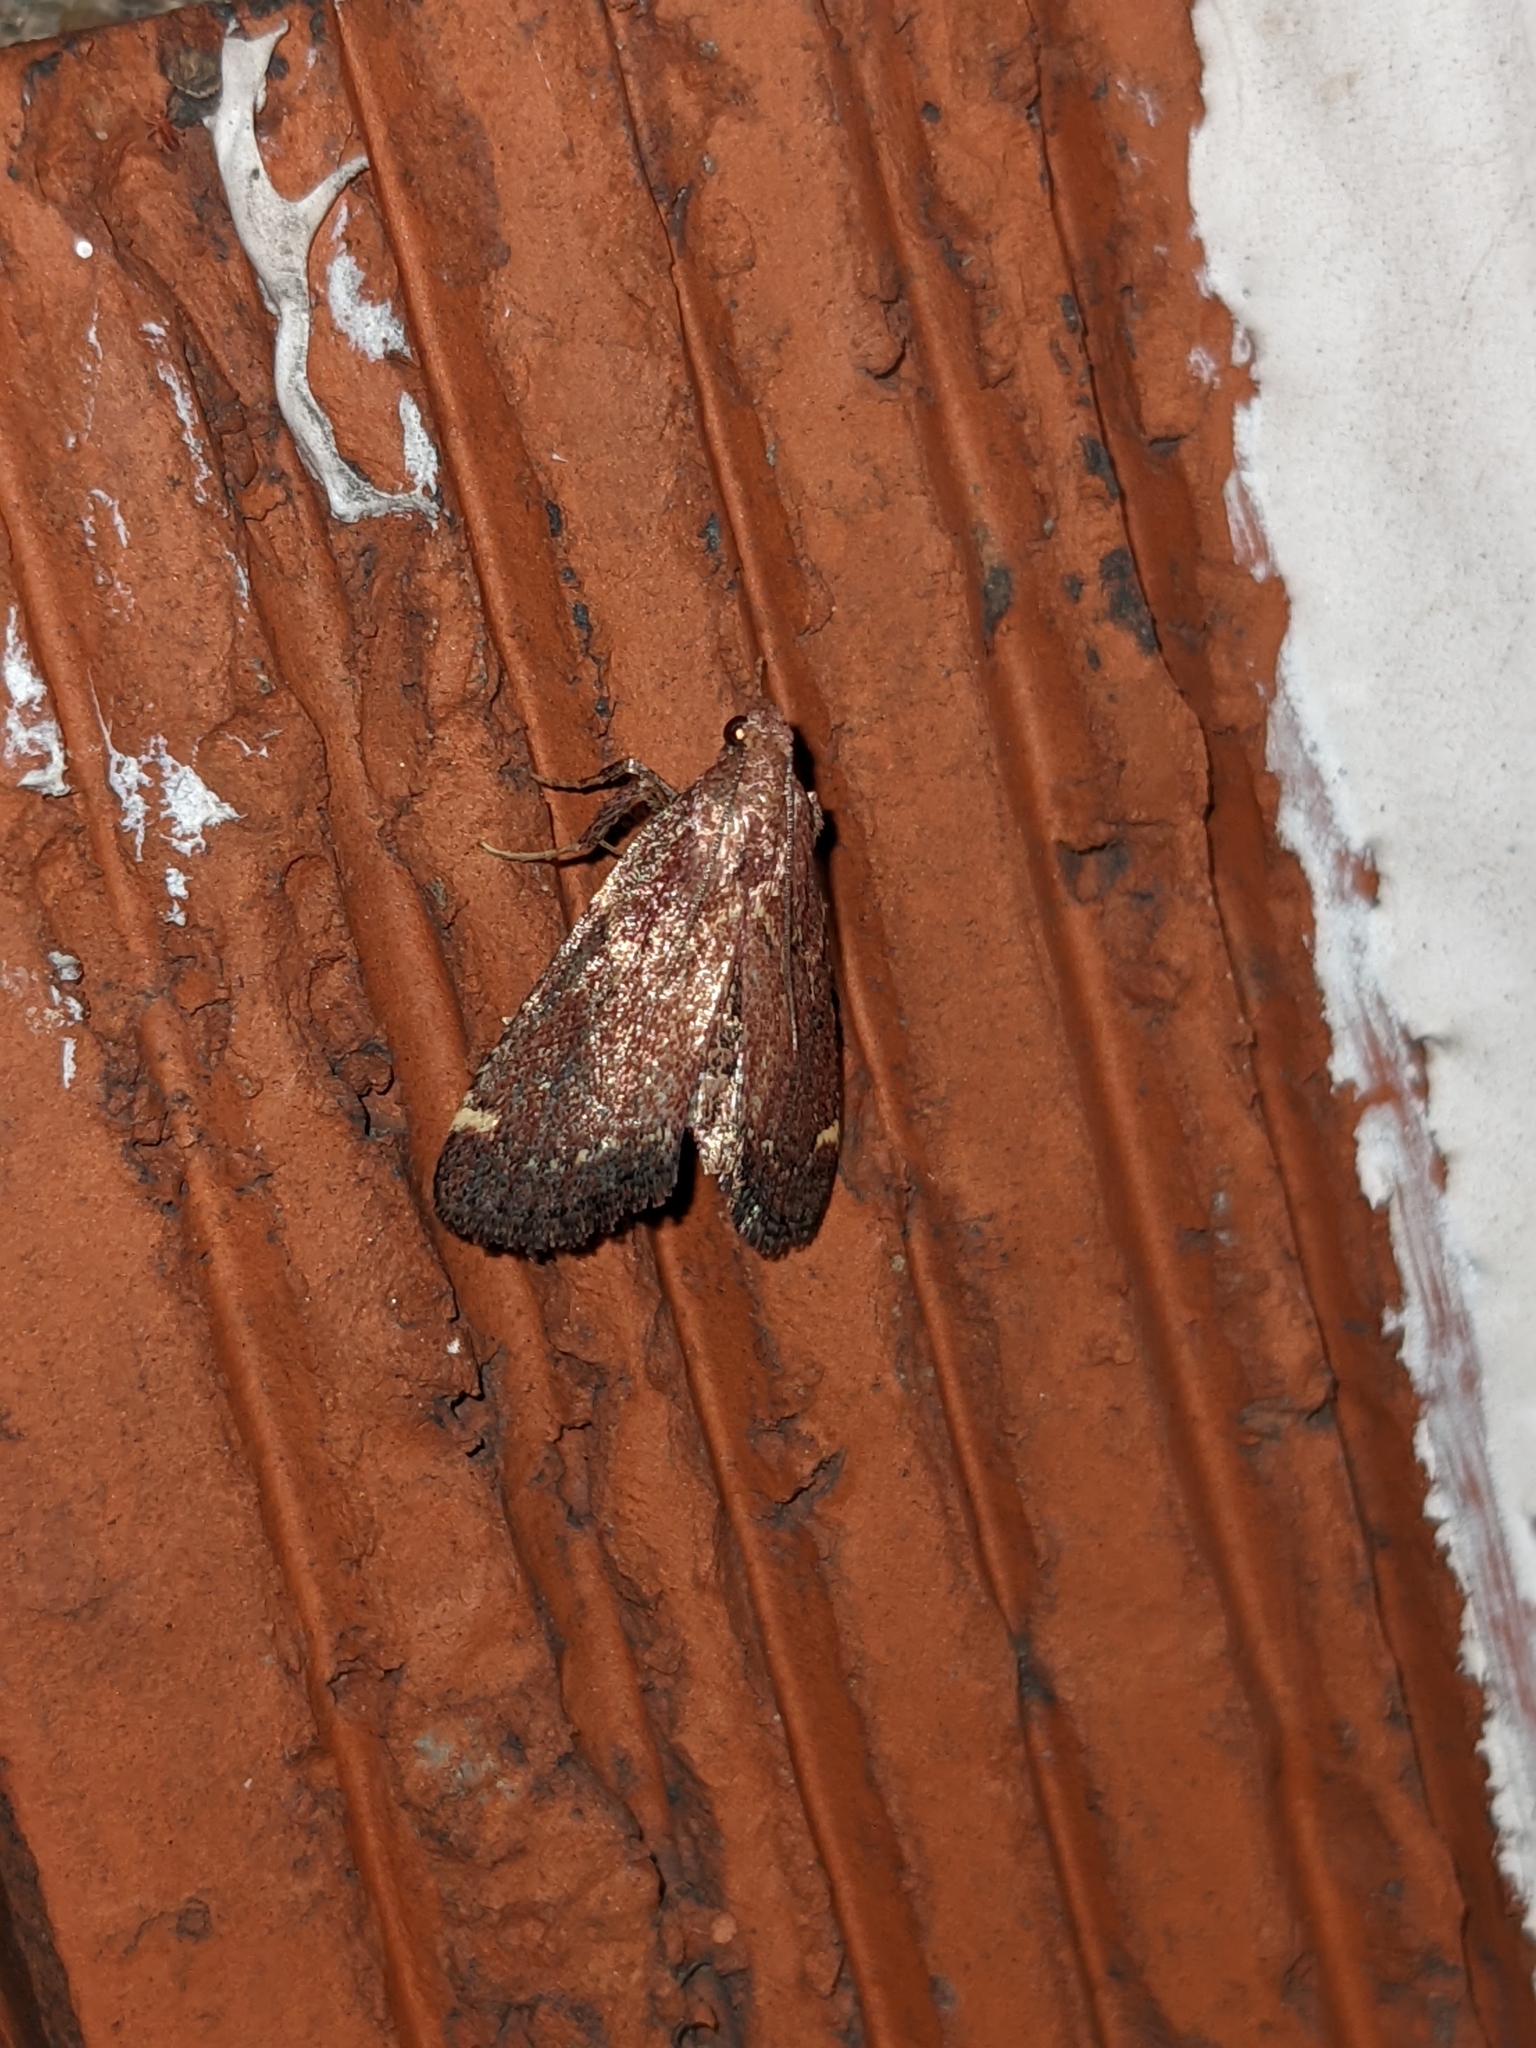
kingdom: Animalia
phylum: Arthropoda
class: Insecta
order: Lepidoptera
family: Pyralidae
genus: Hypsopygia
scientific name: Hypsopygia intermedialis
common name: Red-shawled moth
